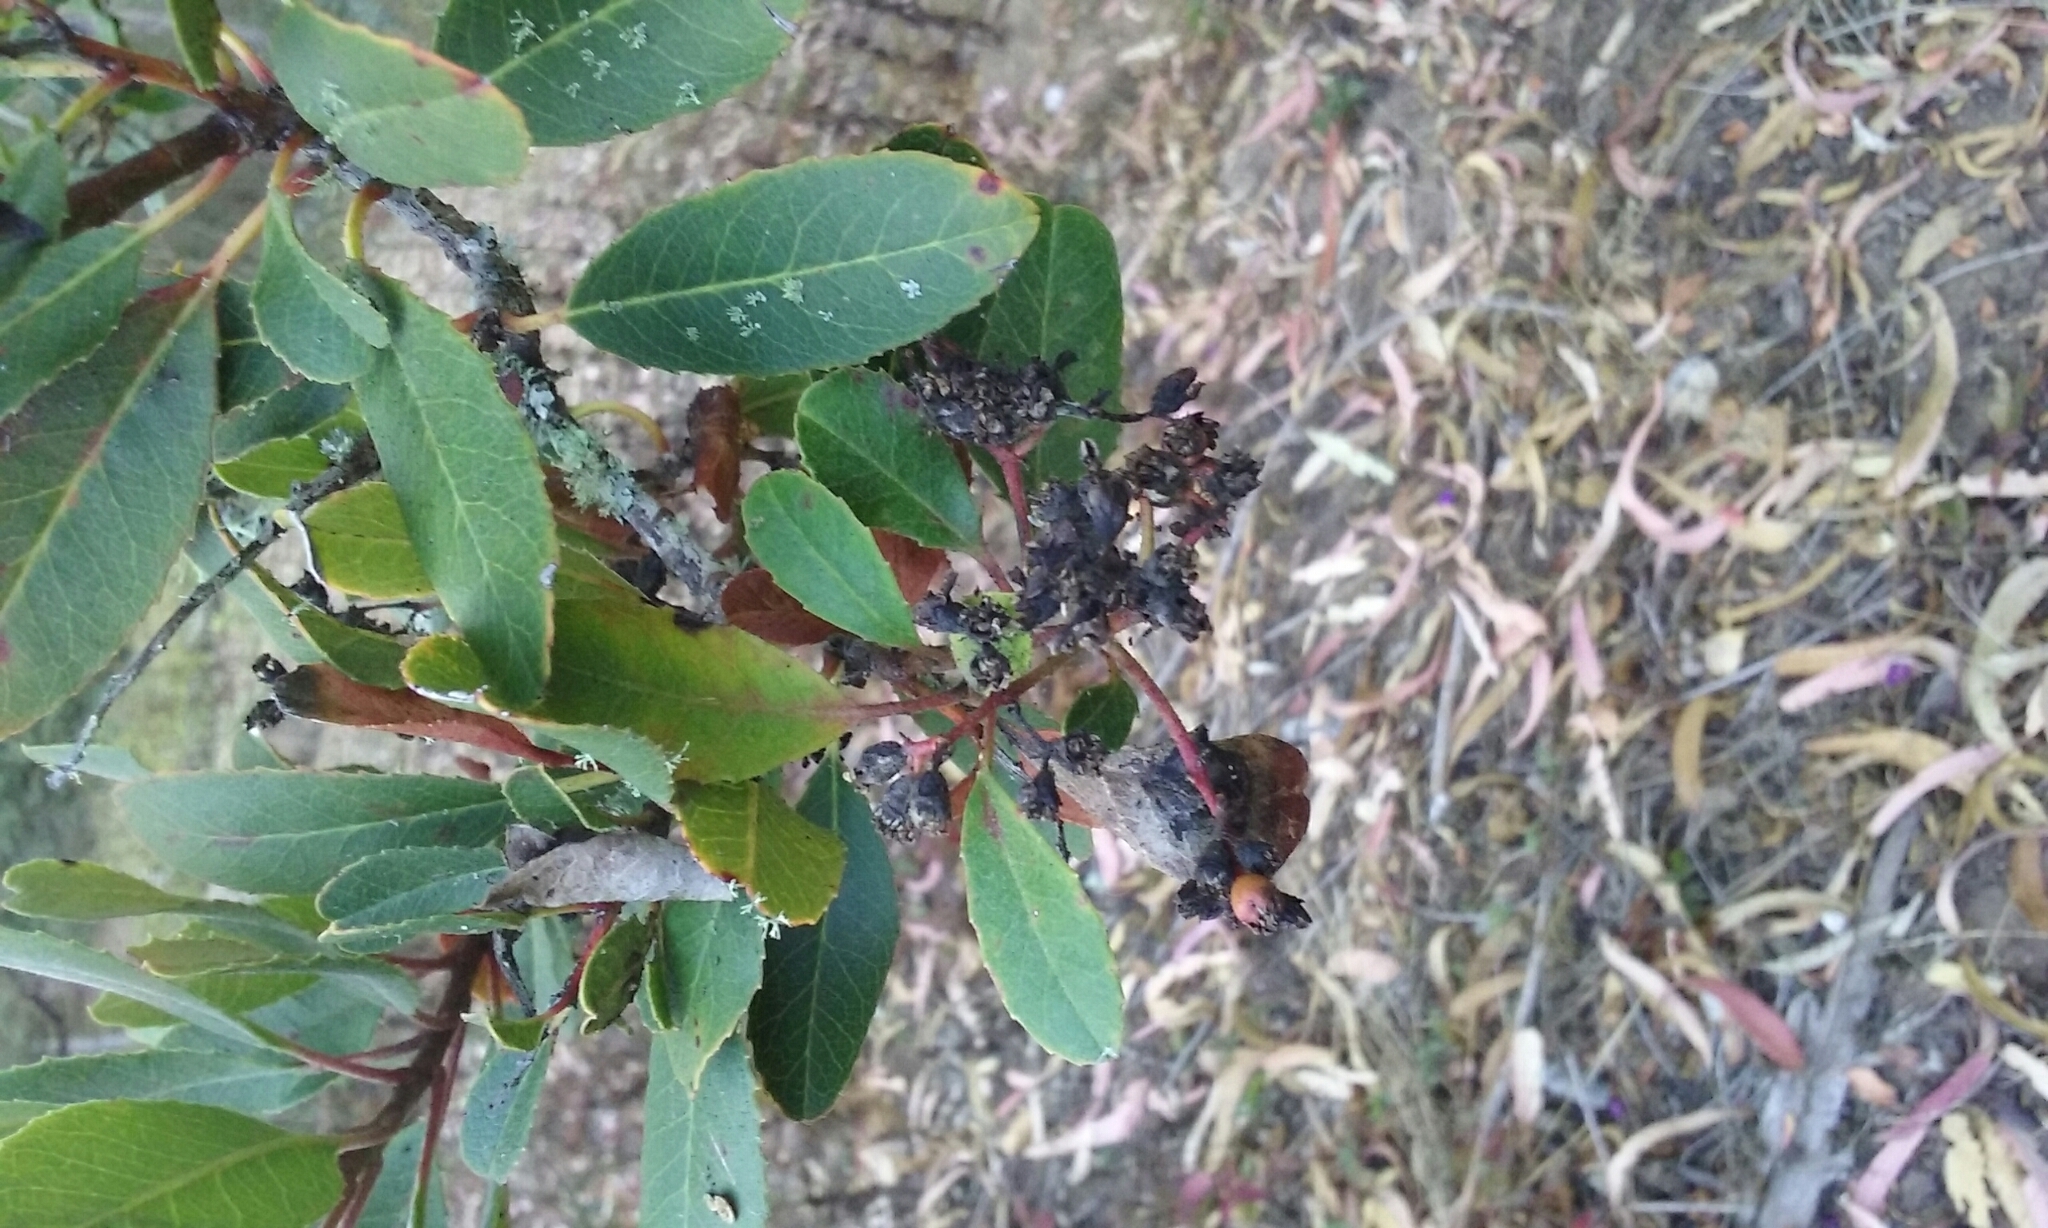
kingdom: Plantae
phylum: Tracheophyta
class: Magnoliopsida
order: Rosales
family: Rosaceae
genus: Heteromeles
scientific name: Heteromeles arbutifolia
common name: California-holly
